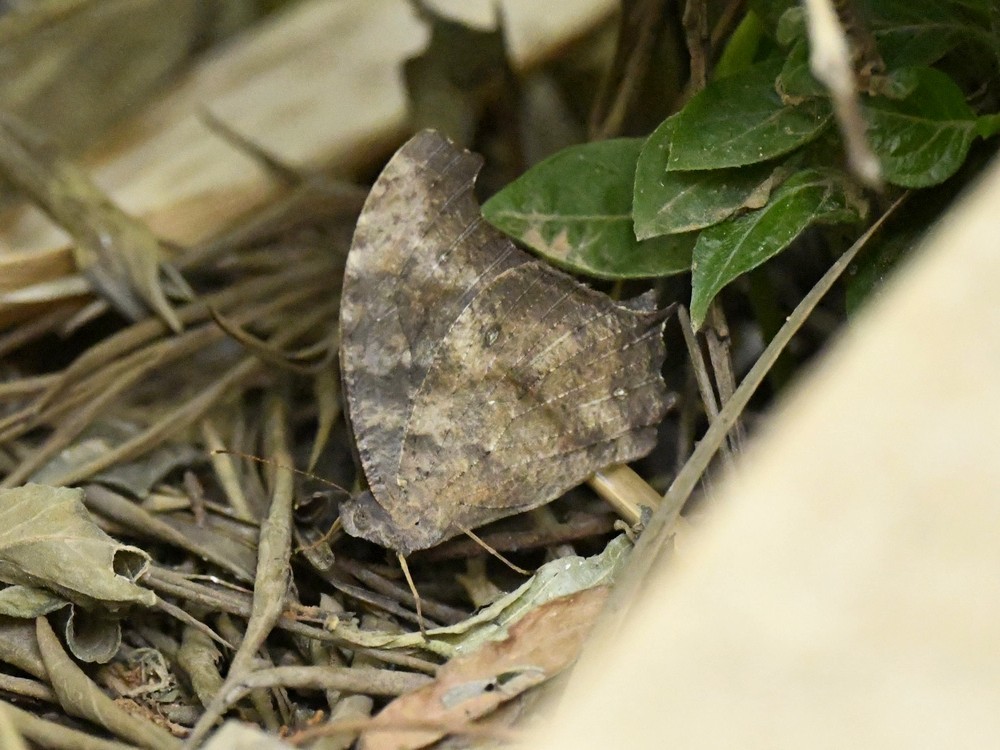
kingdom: Animalia
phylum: Arthropoda
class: Insecta
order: Lepidoptera
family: Nymphalidae
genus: Melanitis
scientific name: Melanitis leda
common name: Twilight brown
